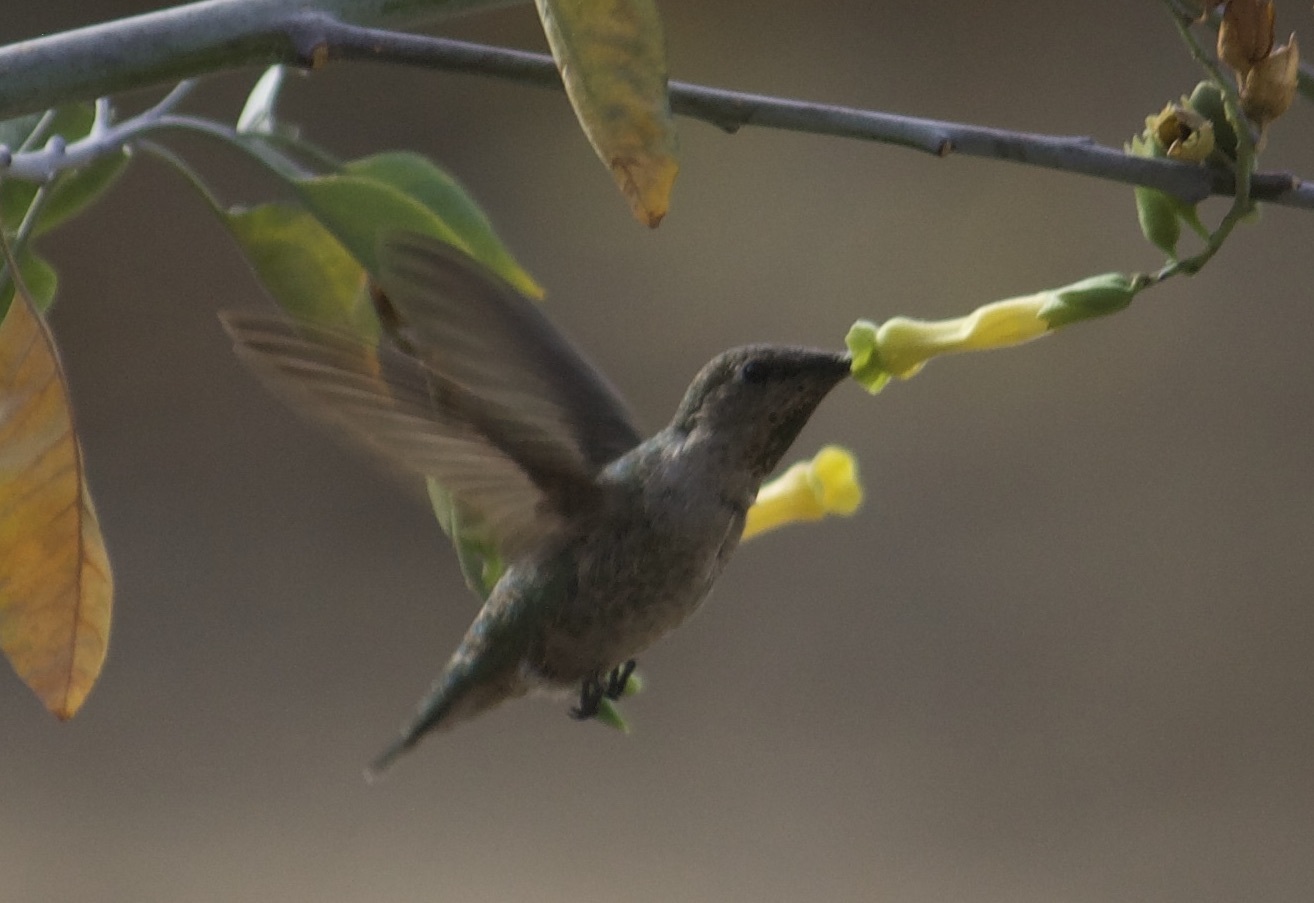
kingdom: Animalia
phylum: Chordata
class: Aves
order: Apodiformes
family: Trochilidae
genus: Calypte
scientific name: Calypte anna
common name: Anna's hummingbird
